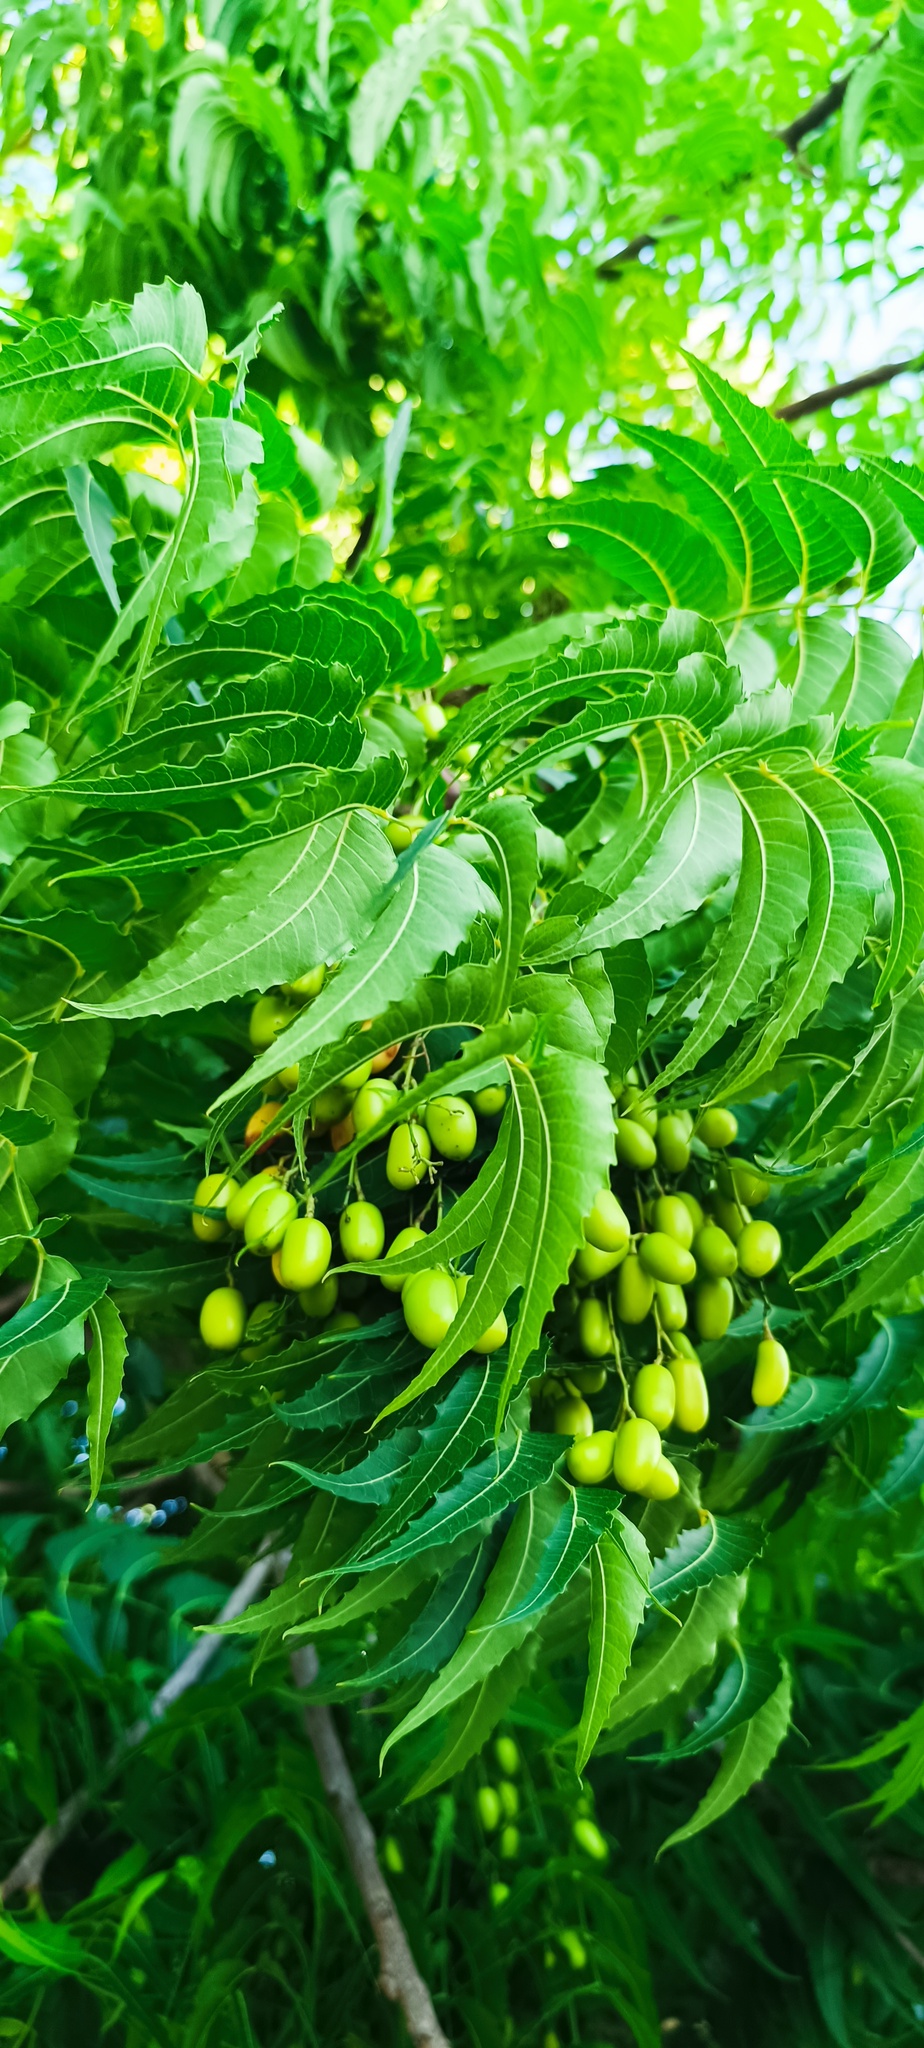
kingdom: Plantae
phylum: Tracheophyta
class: Magnoliopsida
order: Sapindales
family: Meliaceae
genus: Azadirachta
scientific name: Azadirachta indica
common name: Neem
